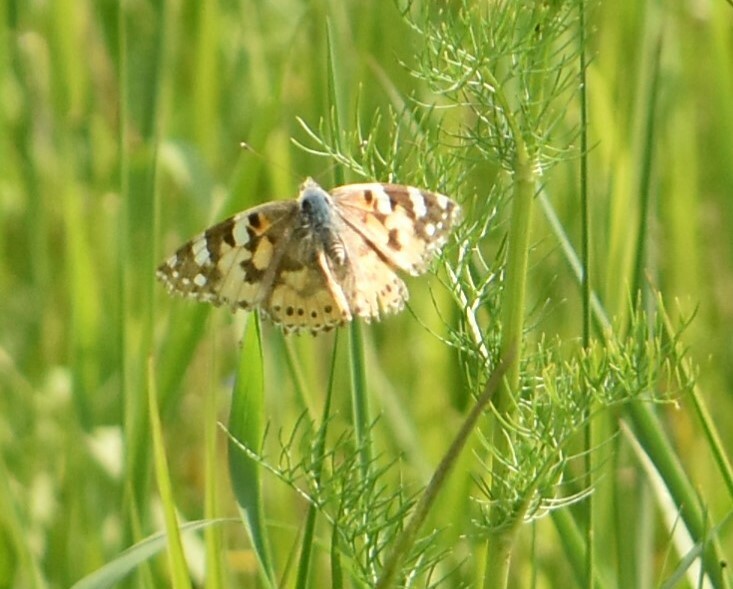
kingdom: Animalia
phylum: Arthropoda
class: Insecta
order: Lepidoptera
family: Nymphalidae
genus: Vanessa
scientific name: Vanessa cardui
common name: Painted lady
